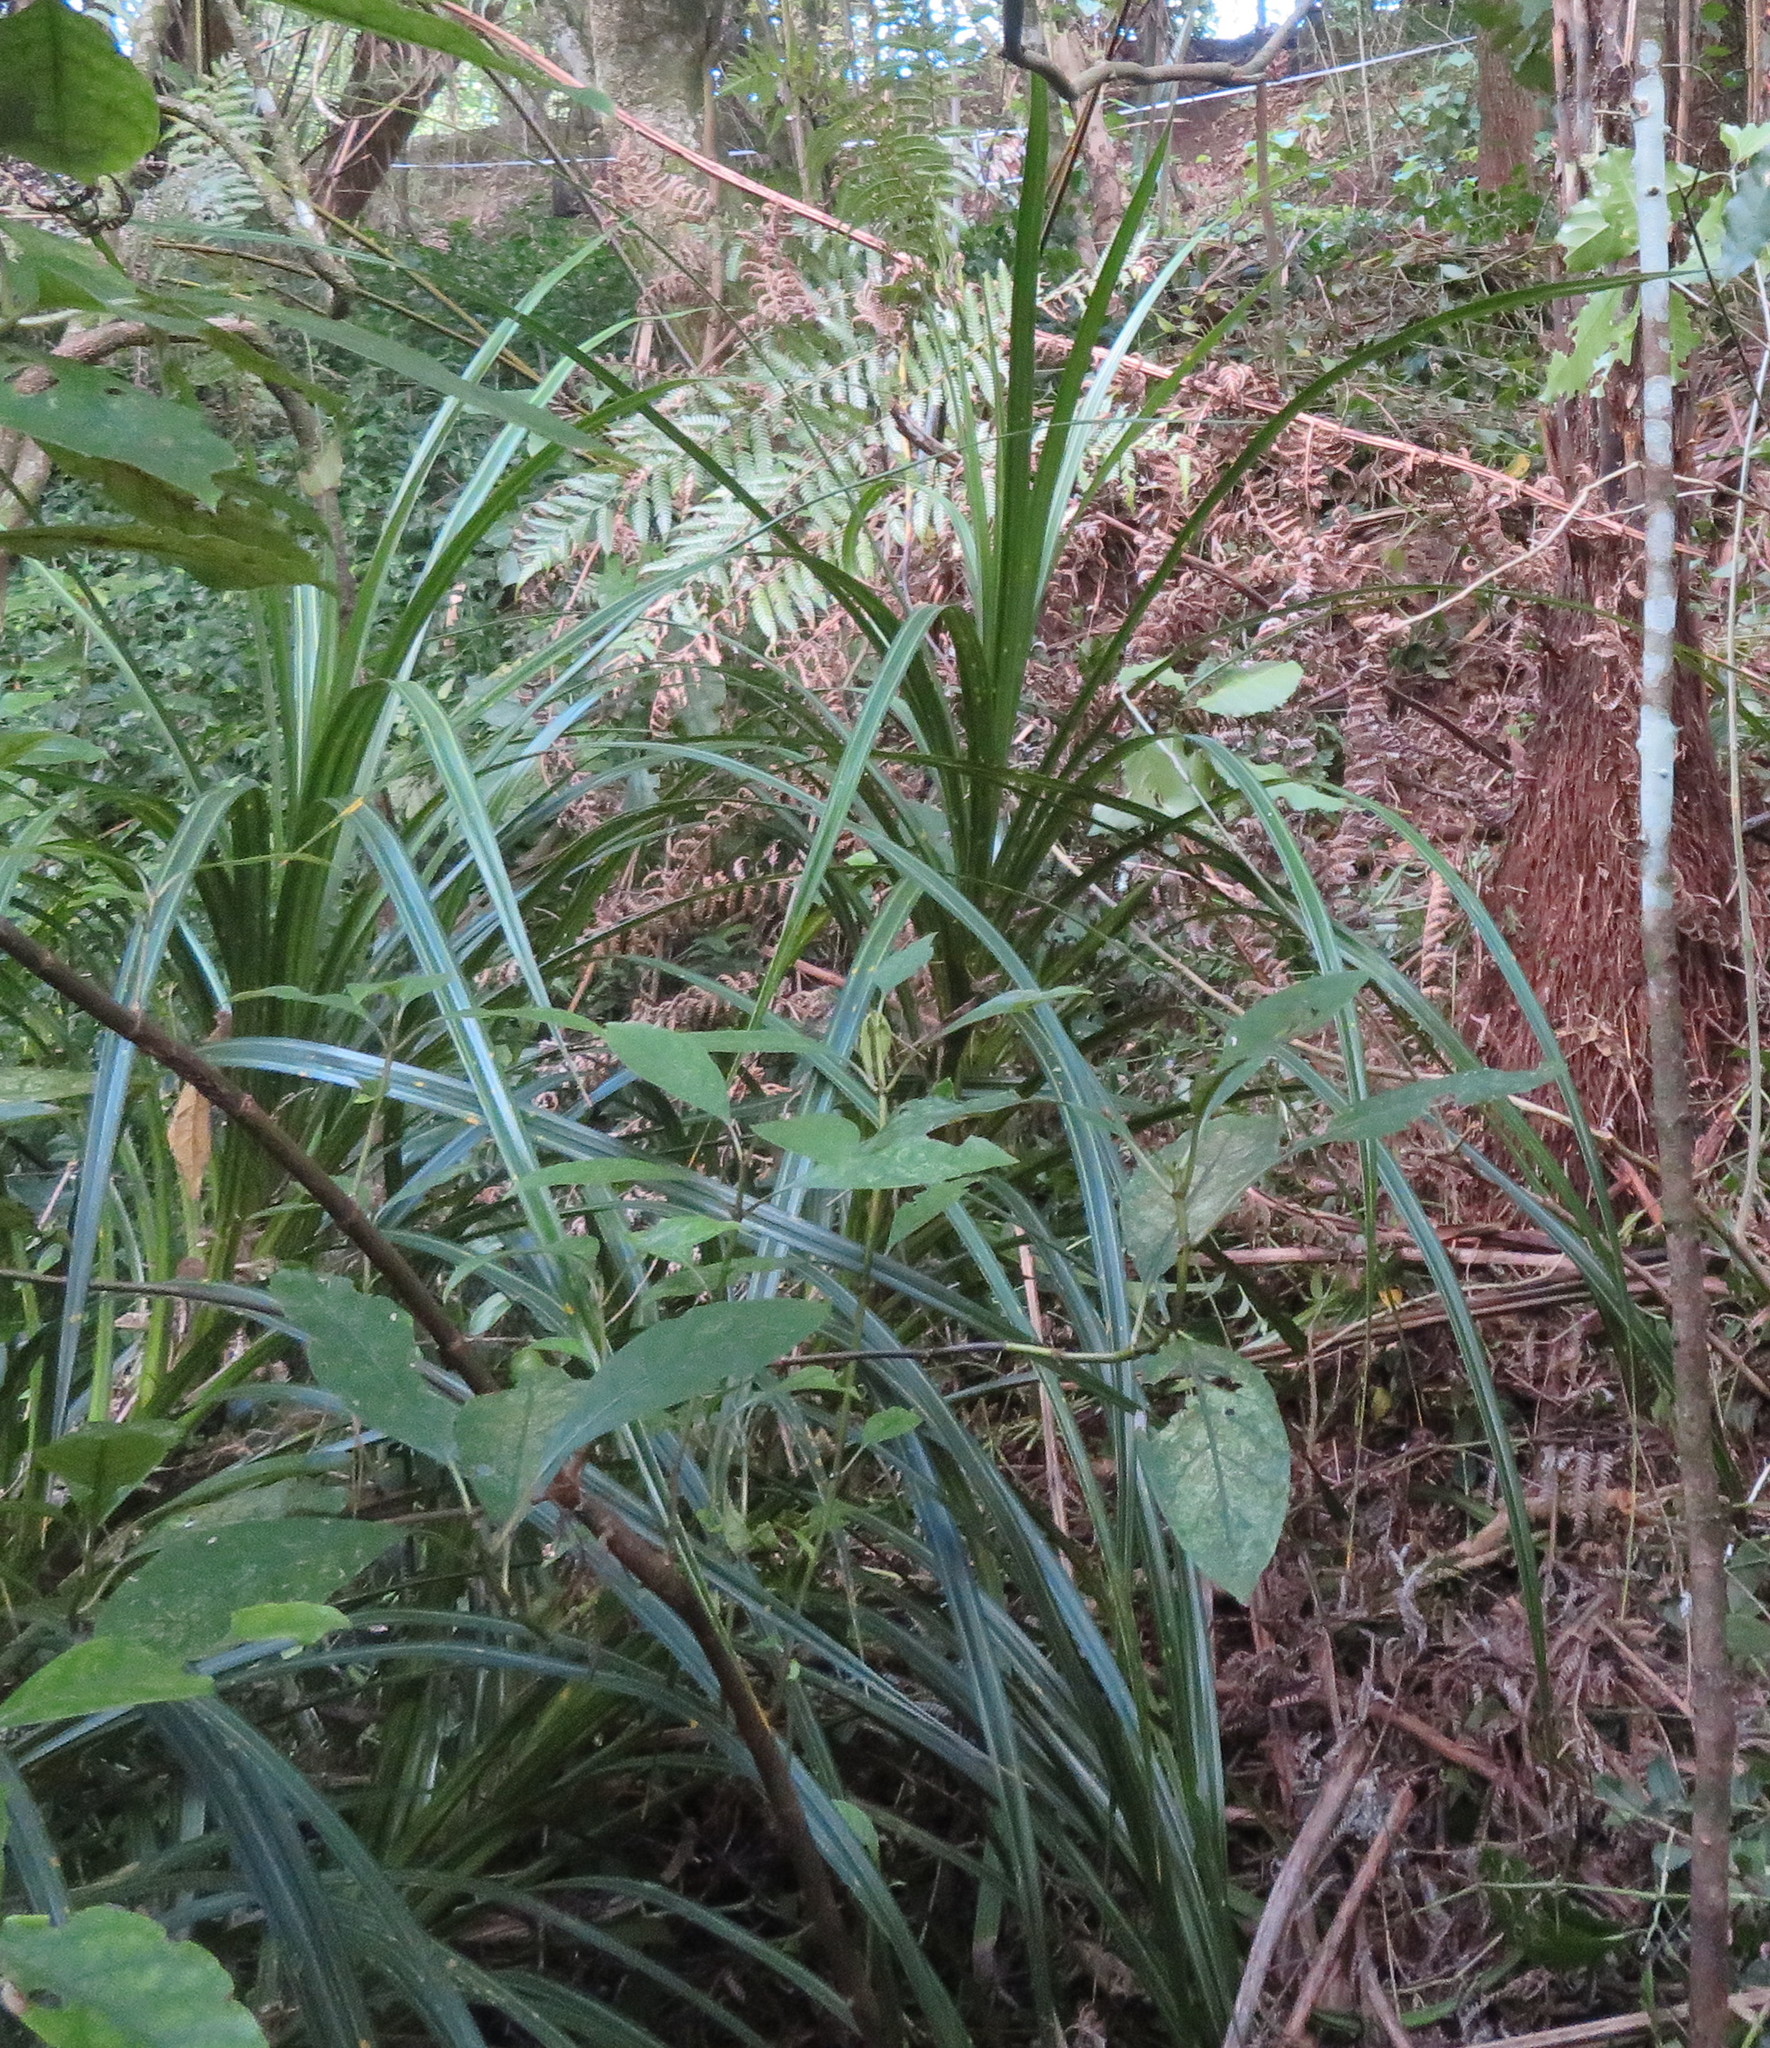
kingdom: Plantae
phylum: Tracheophyta
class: Liliopsida
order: Pandanales
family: Pandanaceae
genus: Freycinetia
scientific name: Freycinetia banksii
